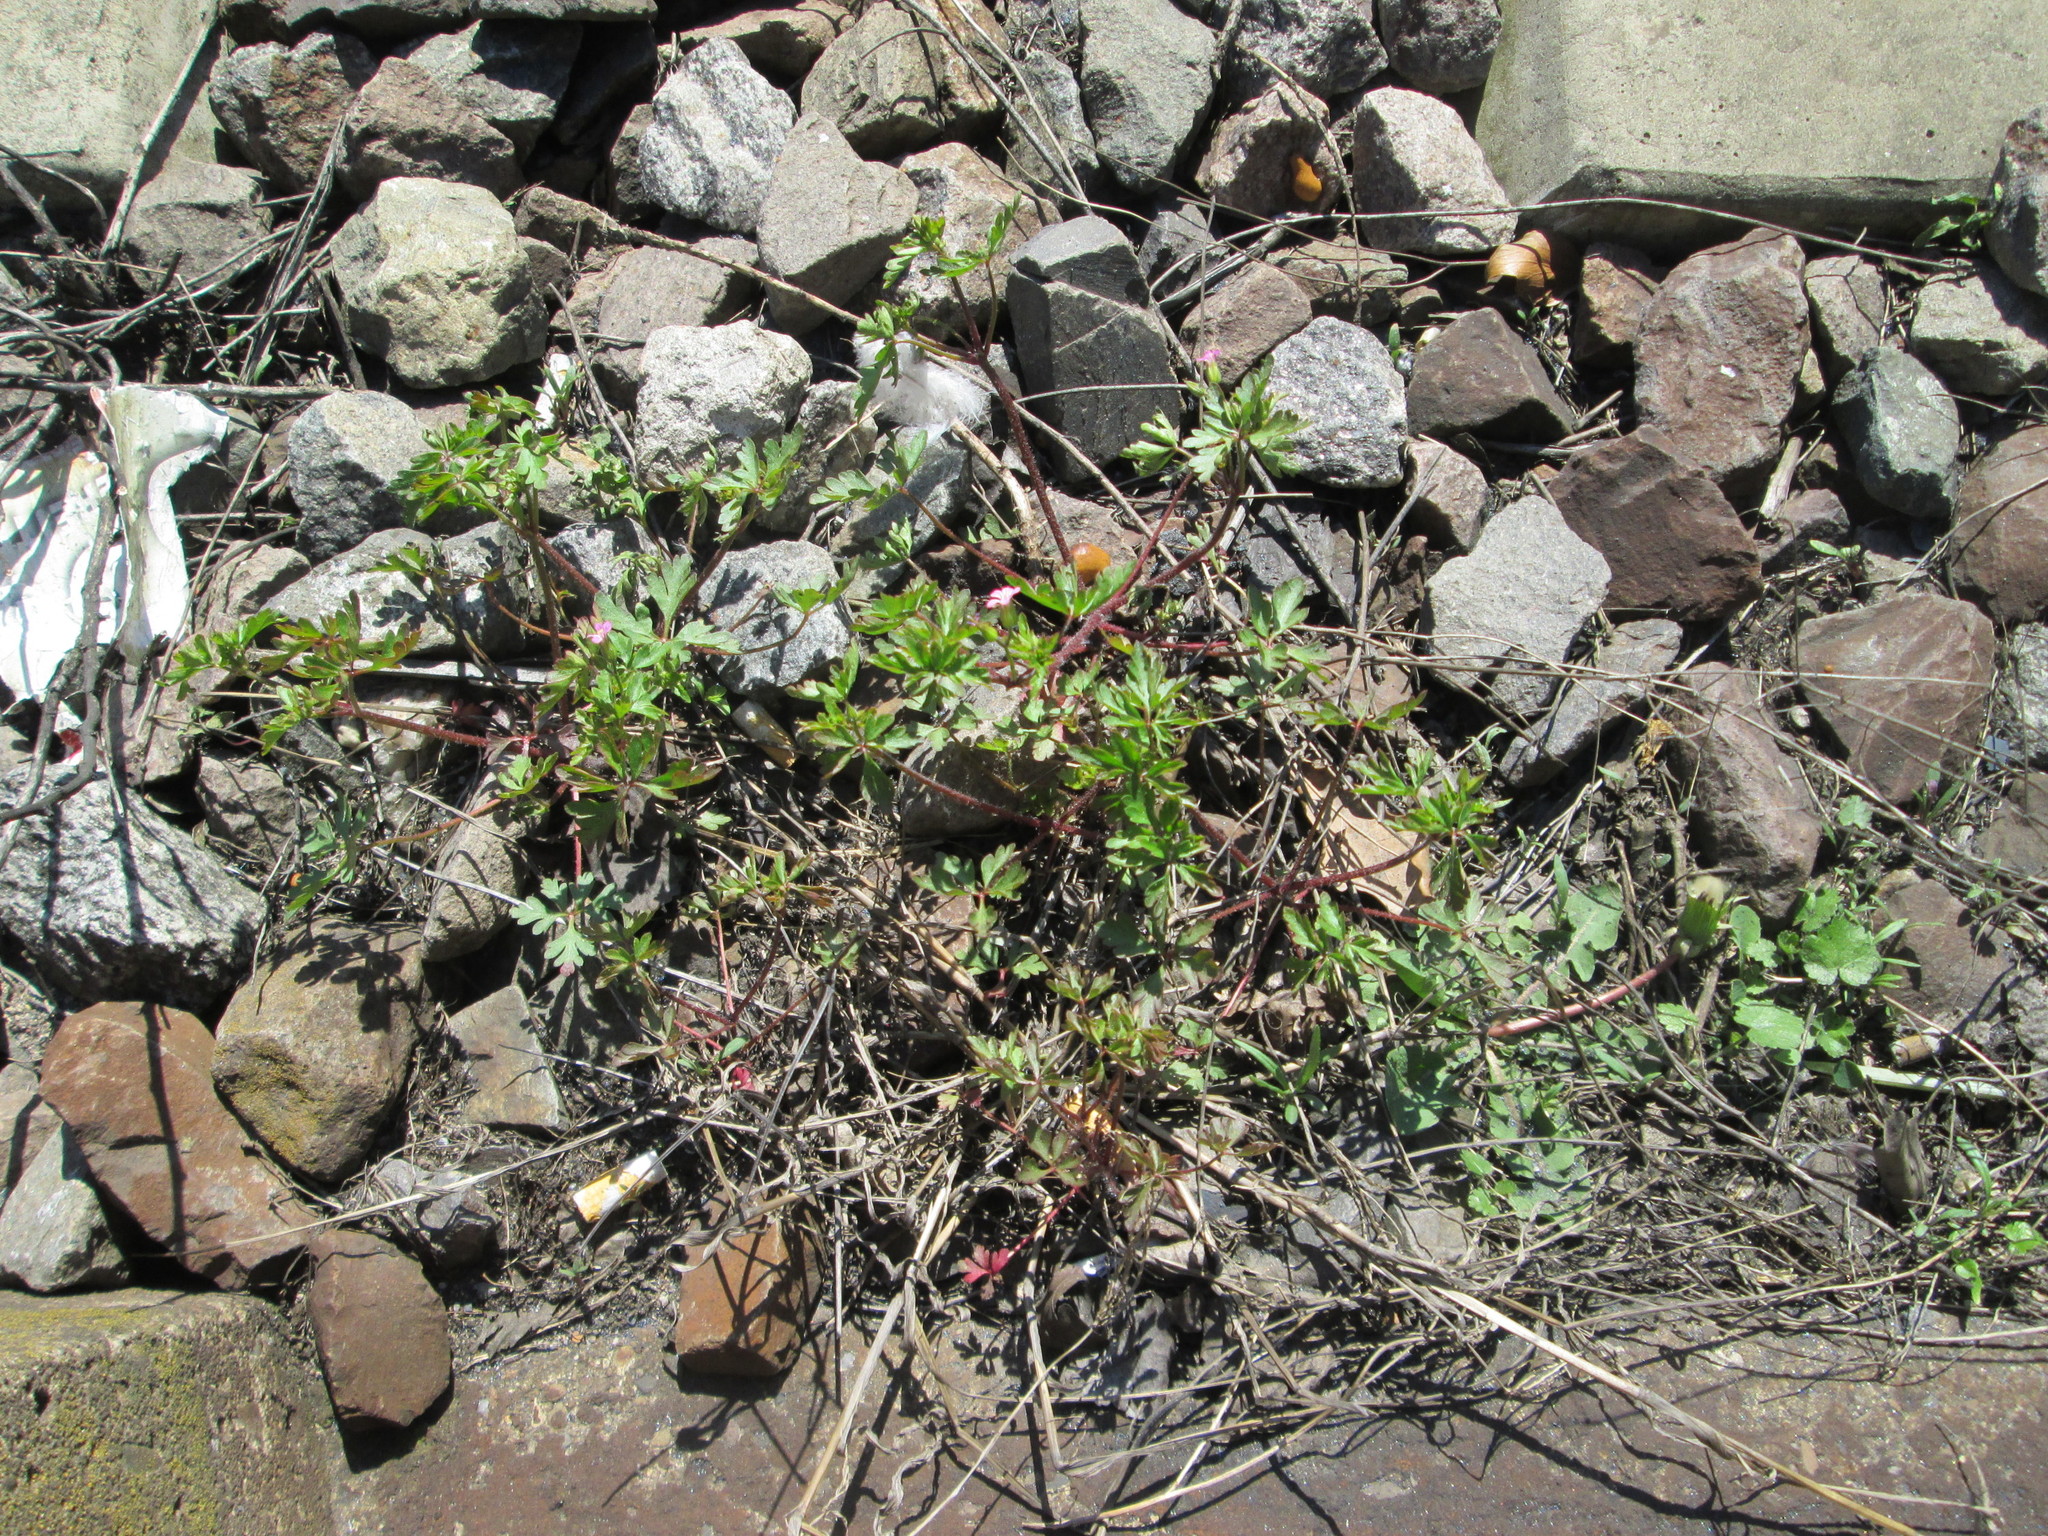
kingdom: Plantae
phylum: Tracheophyta
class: Magnoliopsida
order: Geraniales
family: Geraniaceae
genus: Geranium
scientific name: Geranium robertianum
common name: Herb-robert
